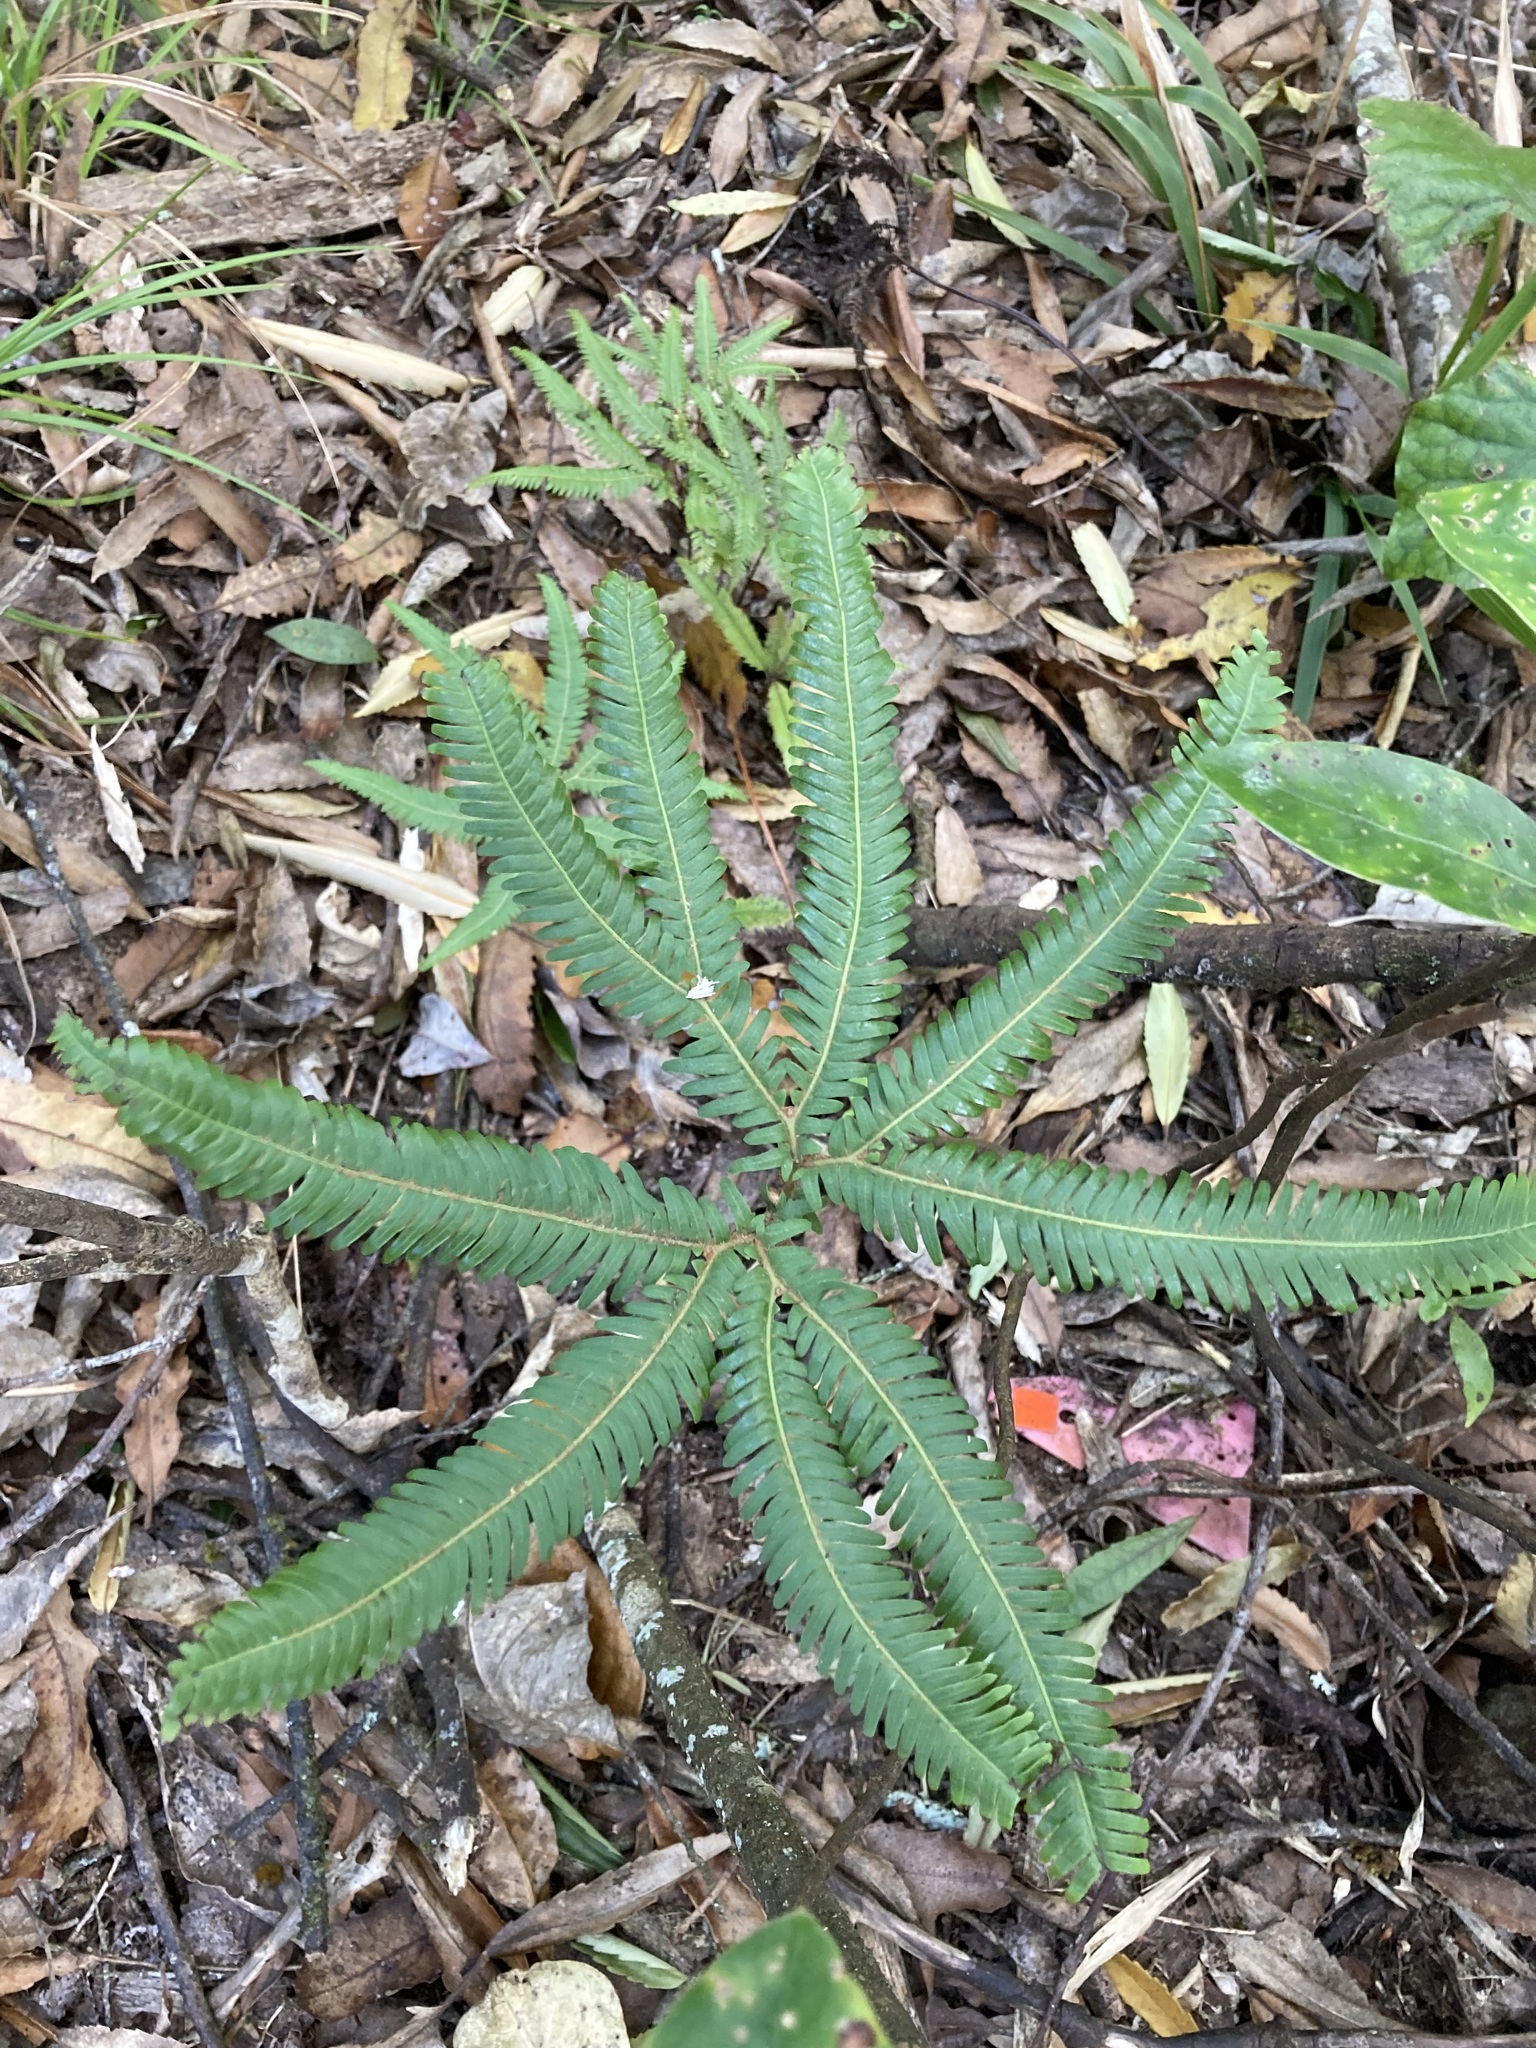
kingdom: Plantae
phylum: Tracheophyta
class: Polypodiopsida
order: Gleicheniales
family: Gleicheniaceae
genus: Sticherus
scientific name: Sticherus cunninghamii
